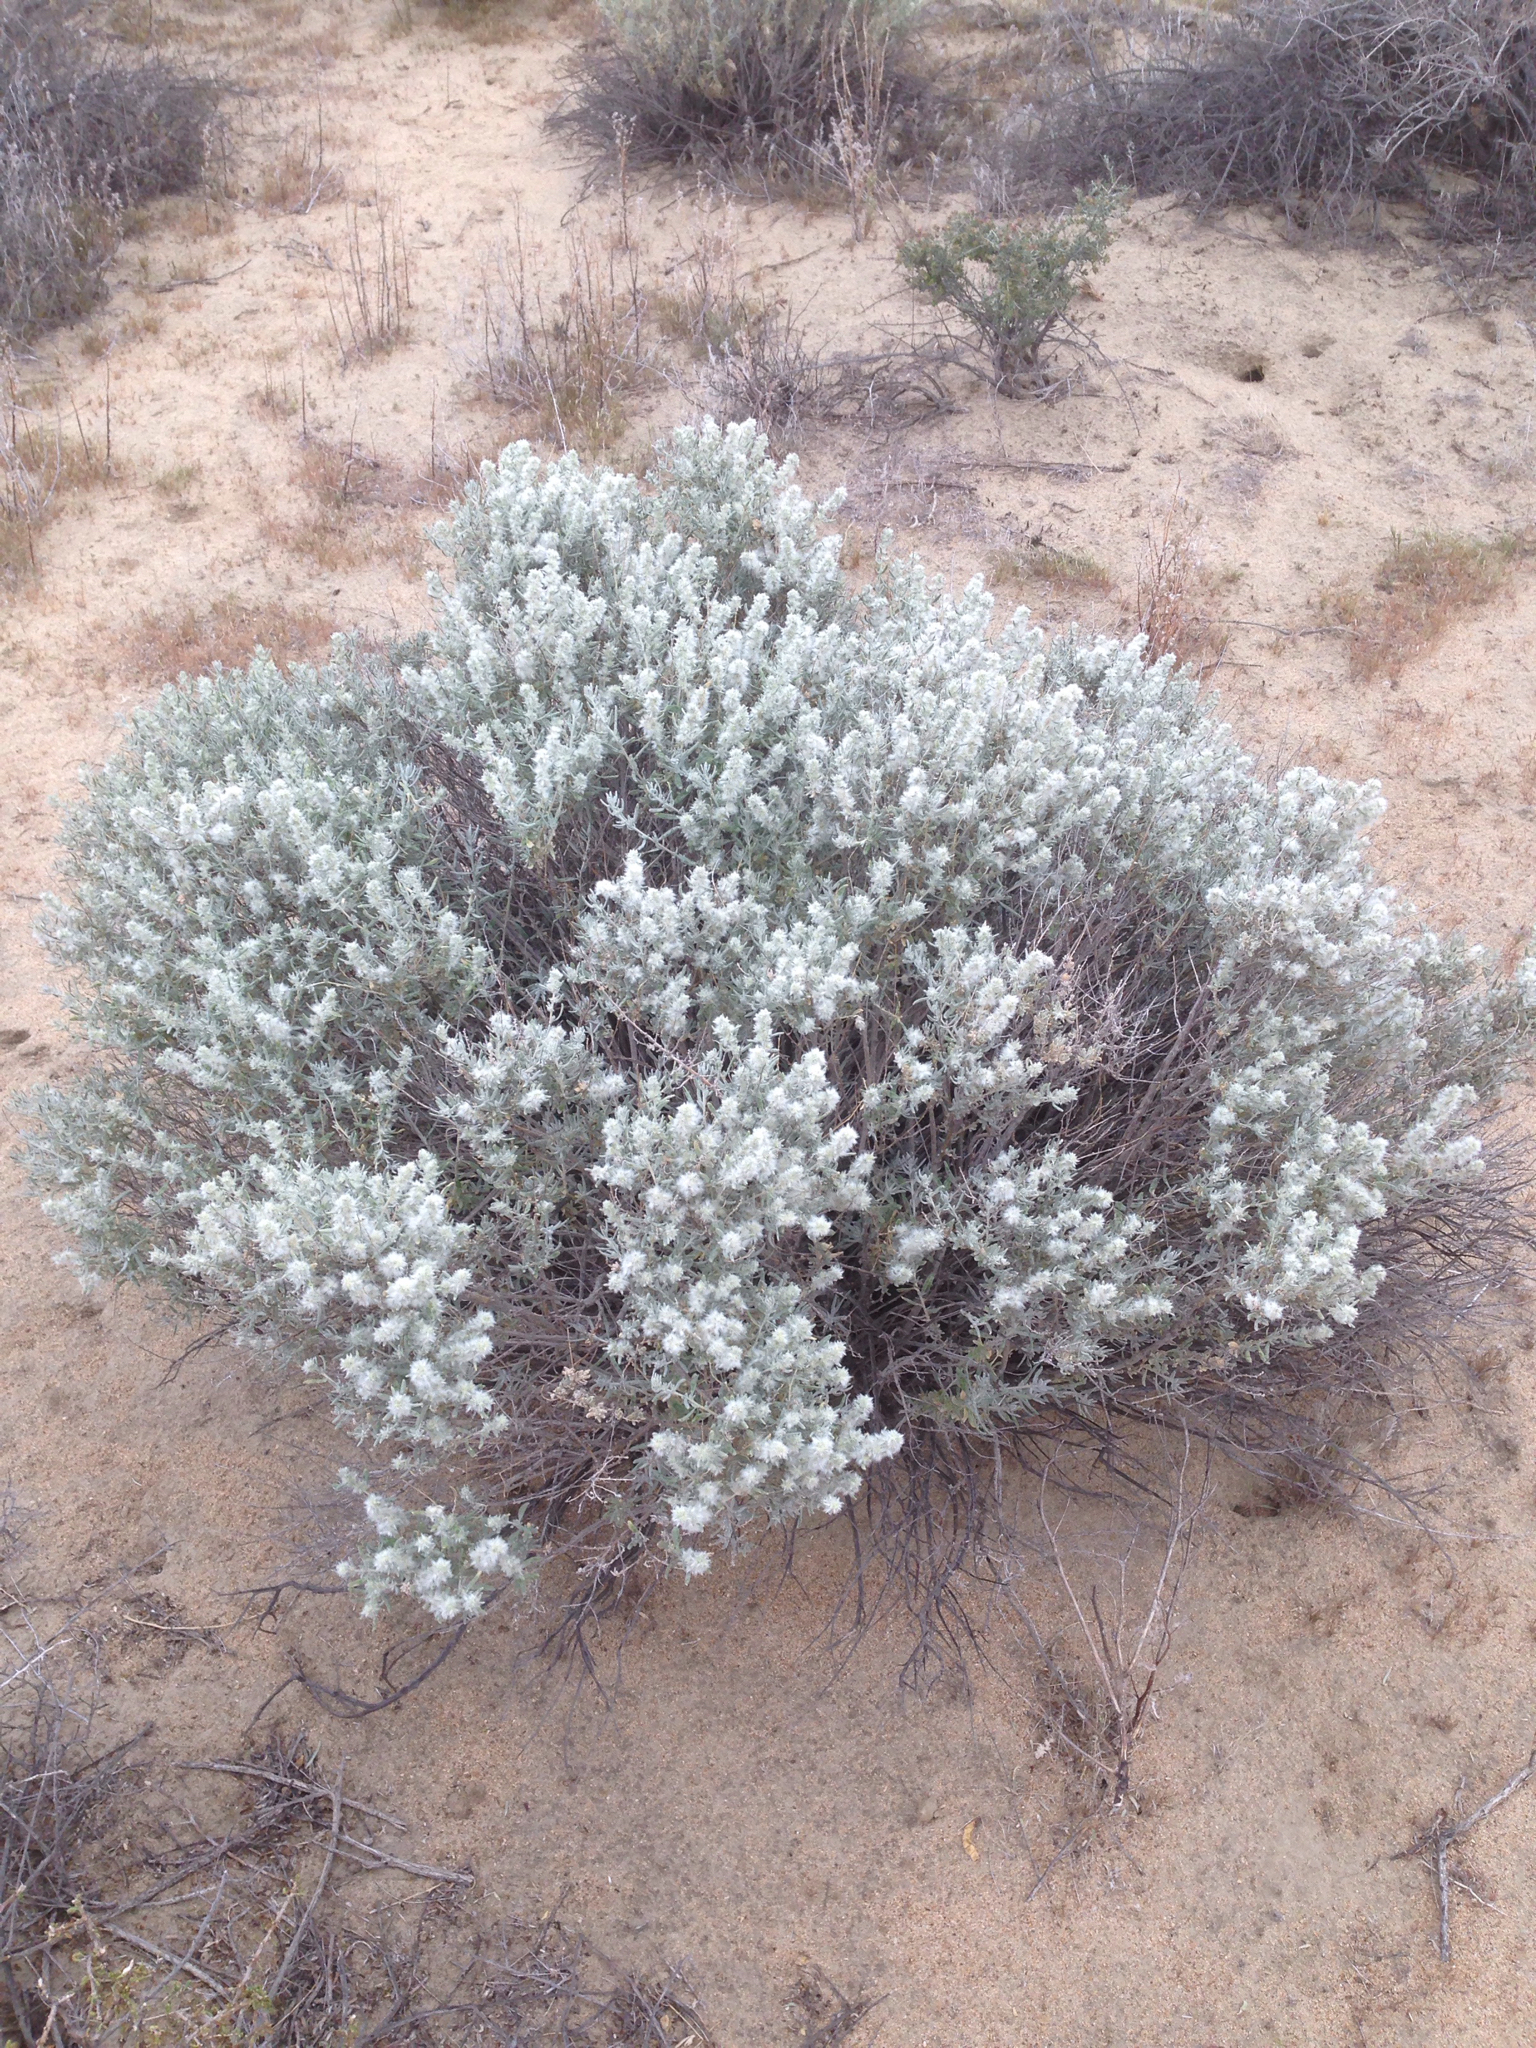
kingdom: Plantae
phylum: Tracheophyta
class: Magnoliopsida
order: Caryophyllales
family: Amaranthaceae
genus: Krascheninnikovia
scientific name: Krascheninnikovia lanata
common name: Winterfat
